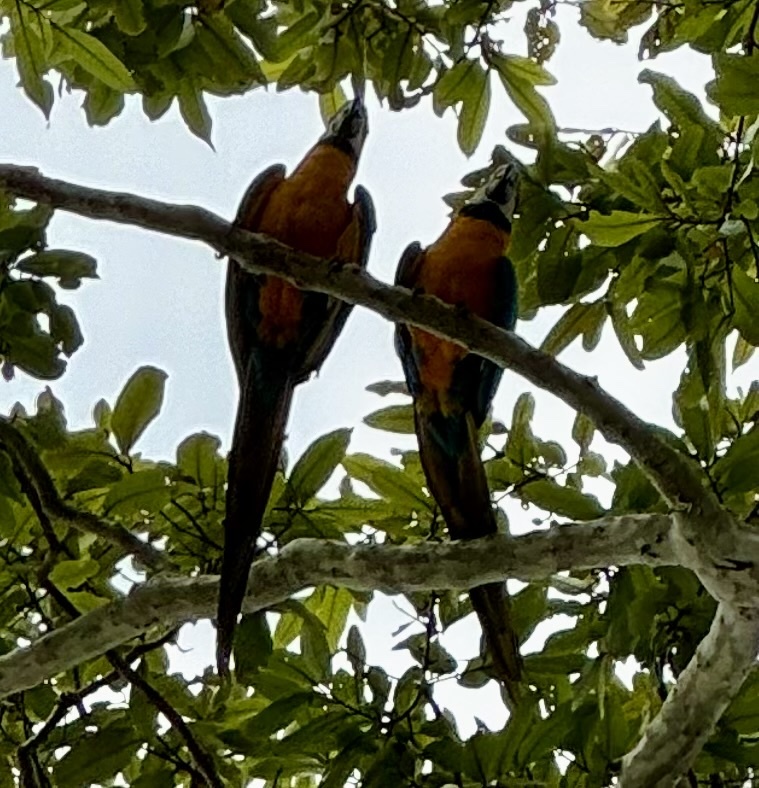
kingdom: Animalia
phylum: Chordata
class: Aves
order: Psittaciformes
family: Psittacidae
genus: Ara
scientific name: Ara ararauna
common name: Blue-and-yellow macaw
